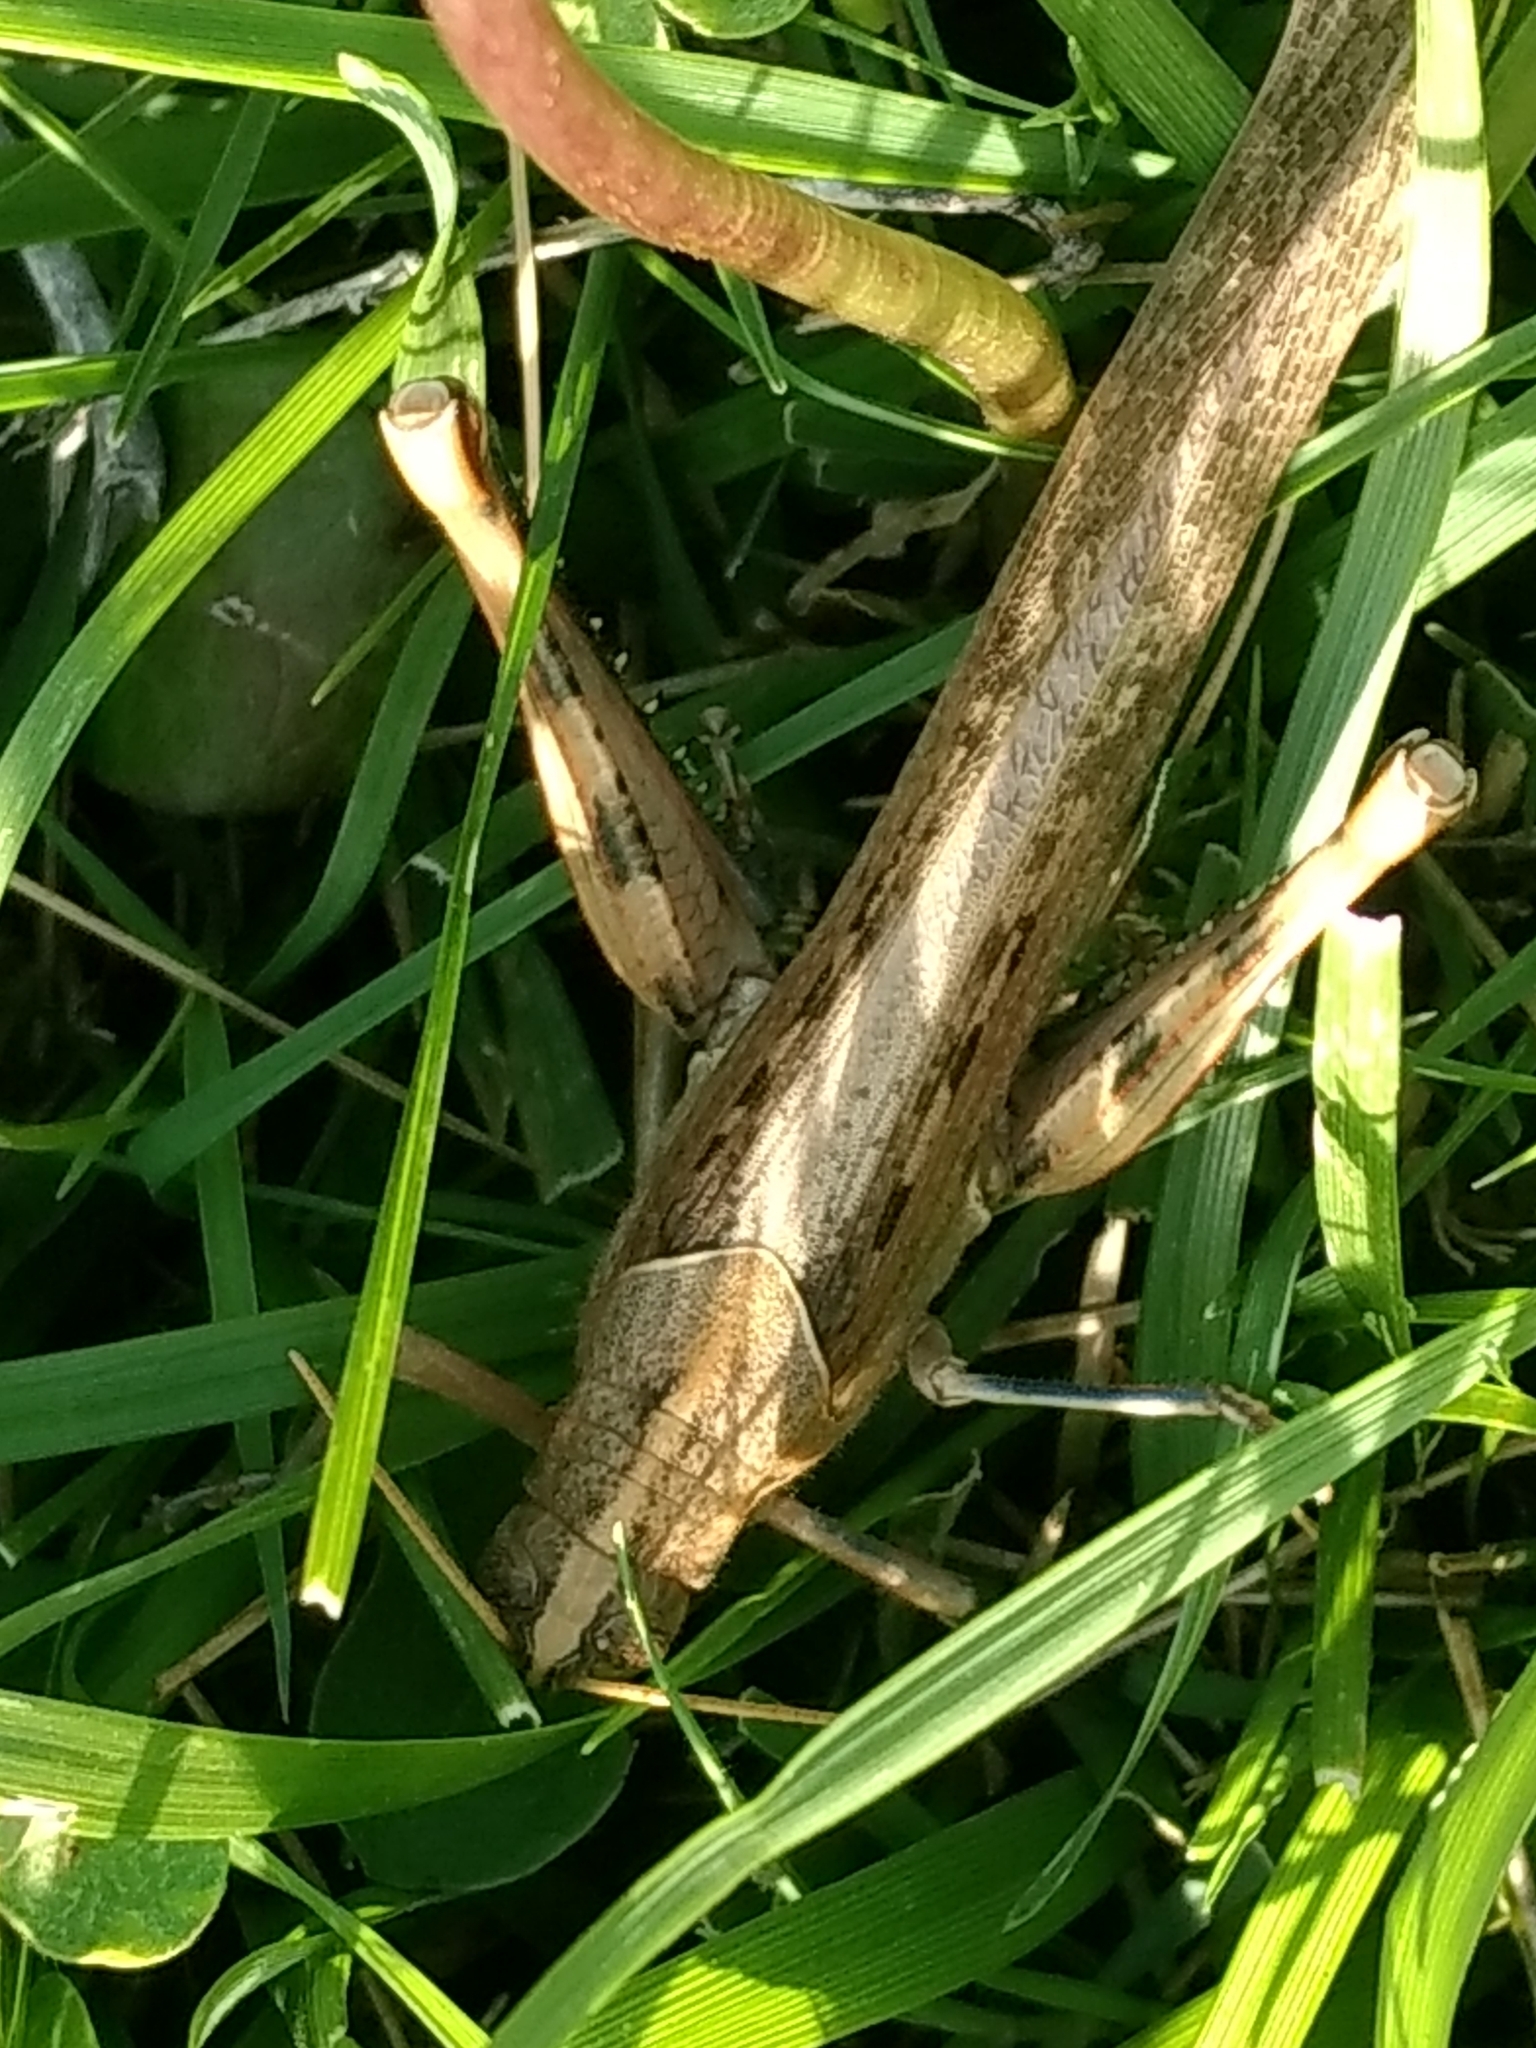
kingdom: Animalia
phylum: Arthropoda
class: Insecta
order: Orthoptera
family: Acrididae
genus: Schistocerca
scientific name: Schistocerca nitens
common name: Vagrant grasshopper
